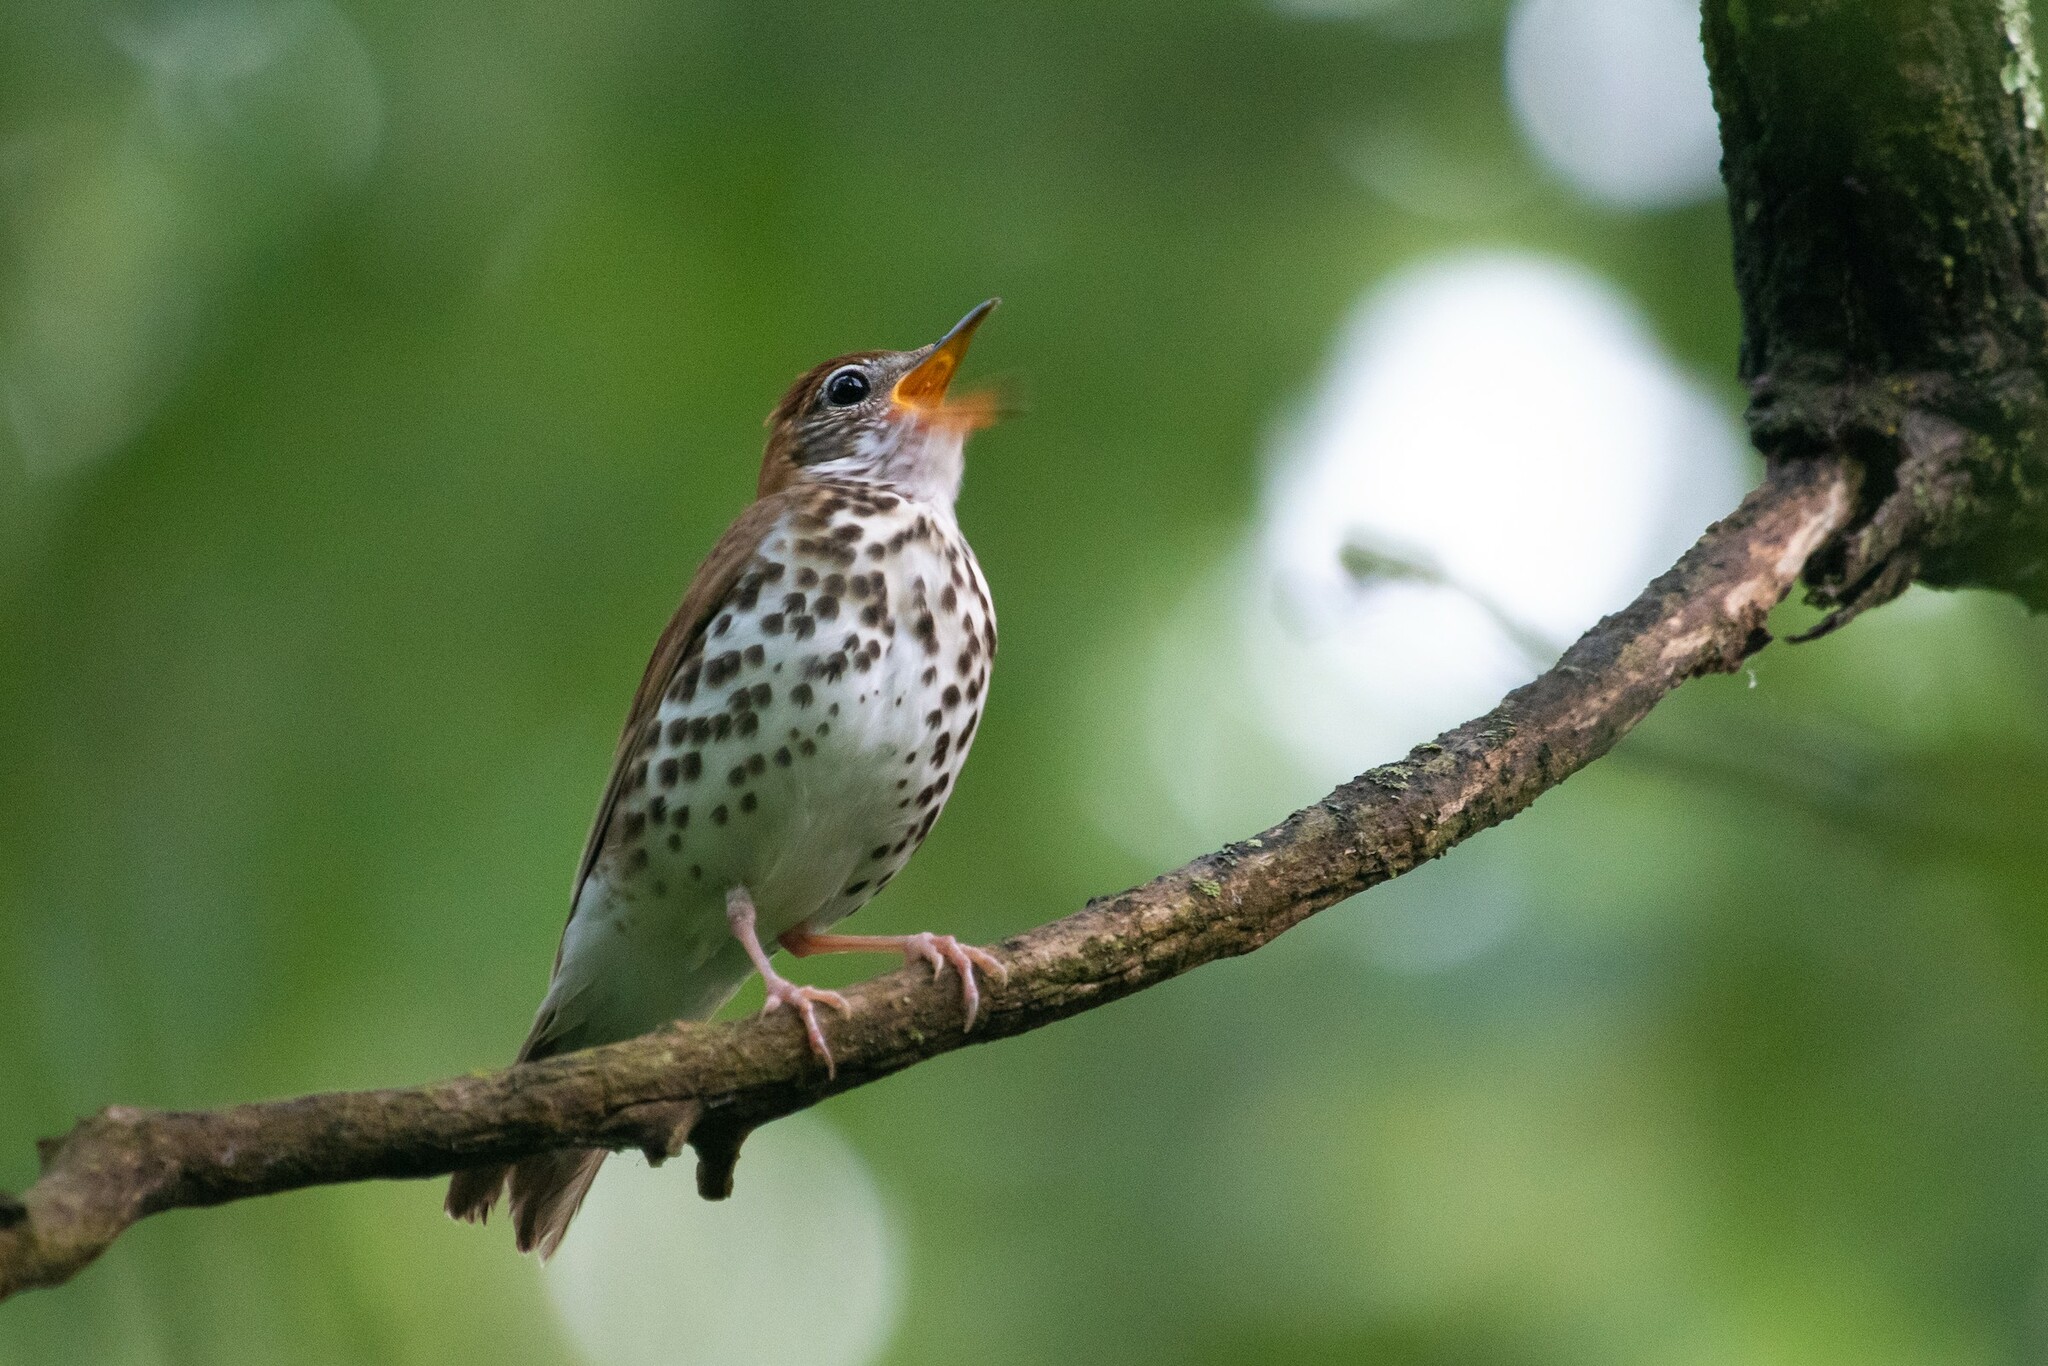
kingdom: Animalia
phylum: Chordata
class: Aves
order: Passeriformes
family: Turdidae
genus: Hylocichla
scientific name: Hylocichla mustelina
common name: Wood thrush
